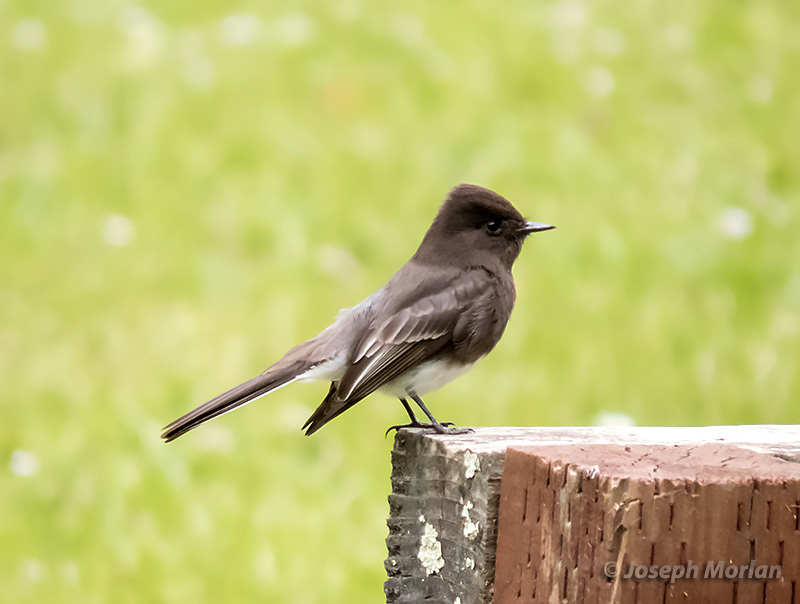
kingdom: Animalia
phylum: Chordata
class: Aves
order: Passeriformes
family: Tyrannidae
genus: Sayornis
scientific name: Sayornis nigricans
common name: Black phoebe
